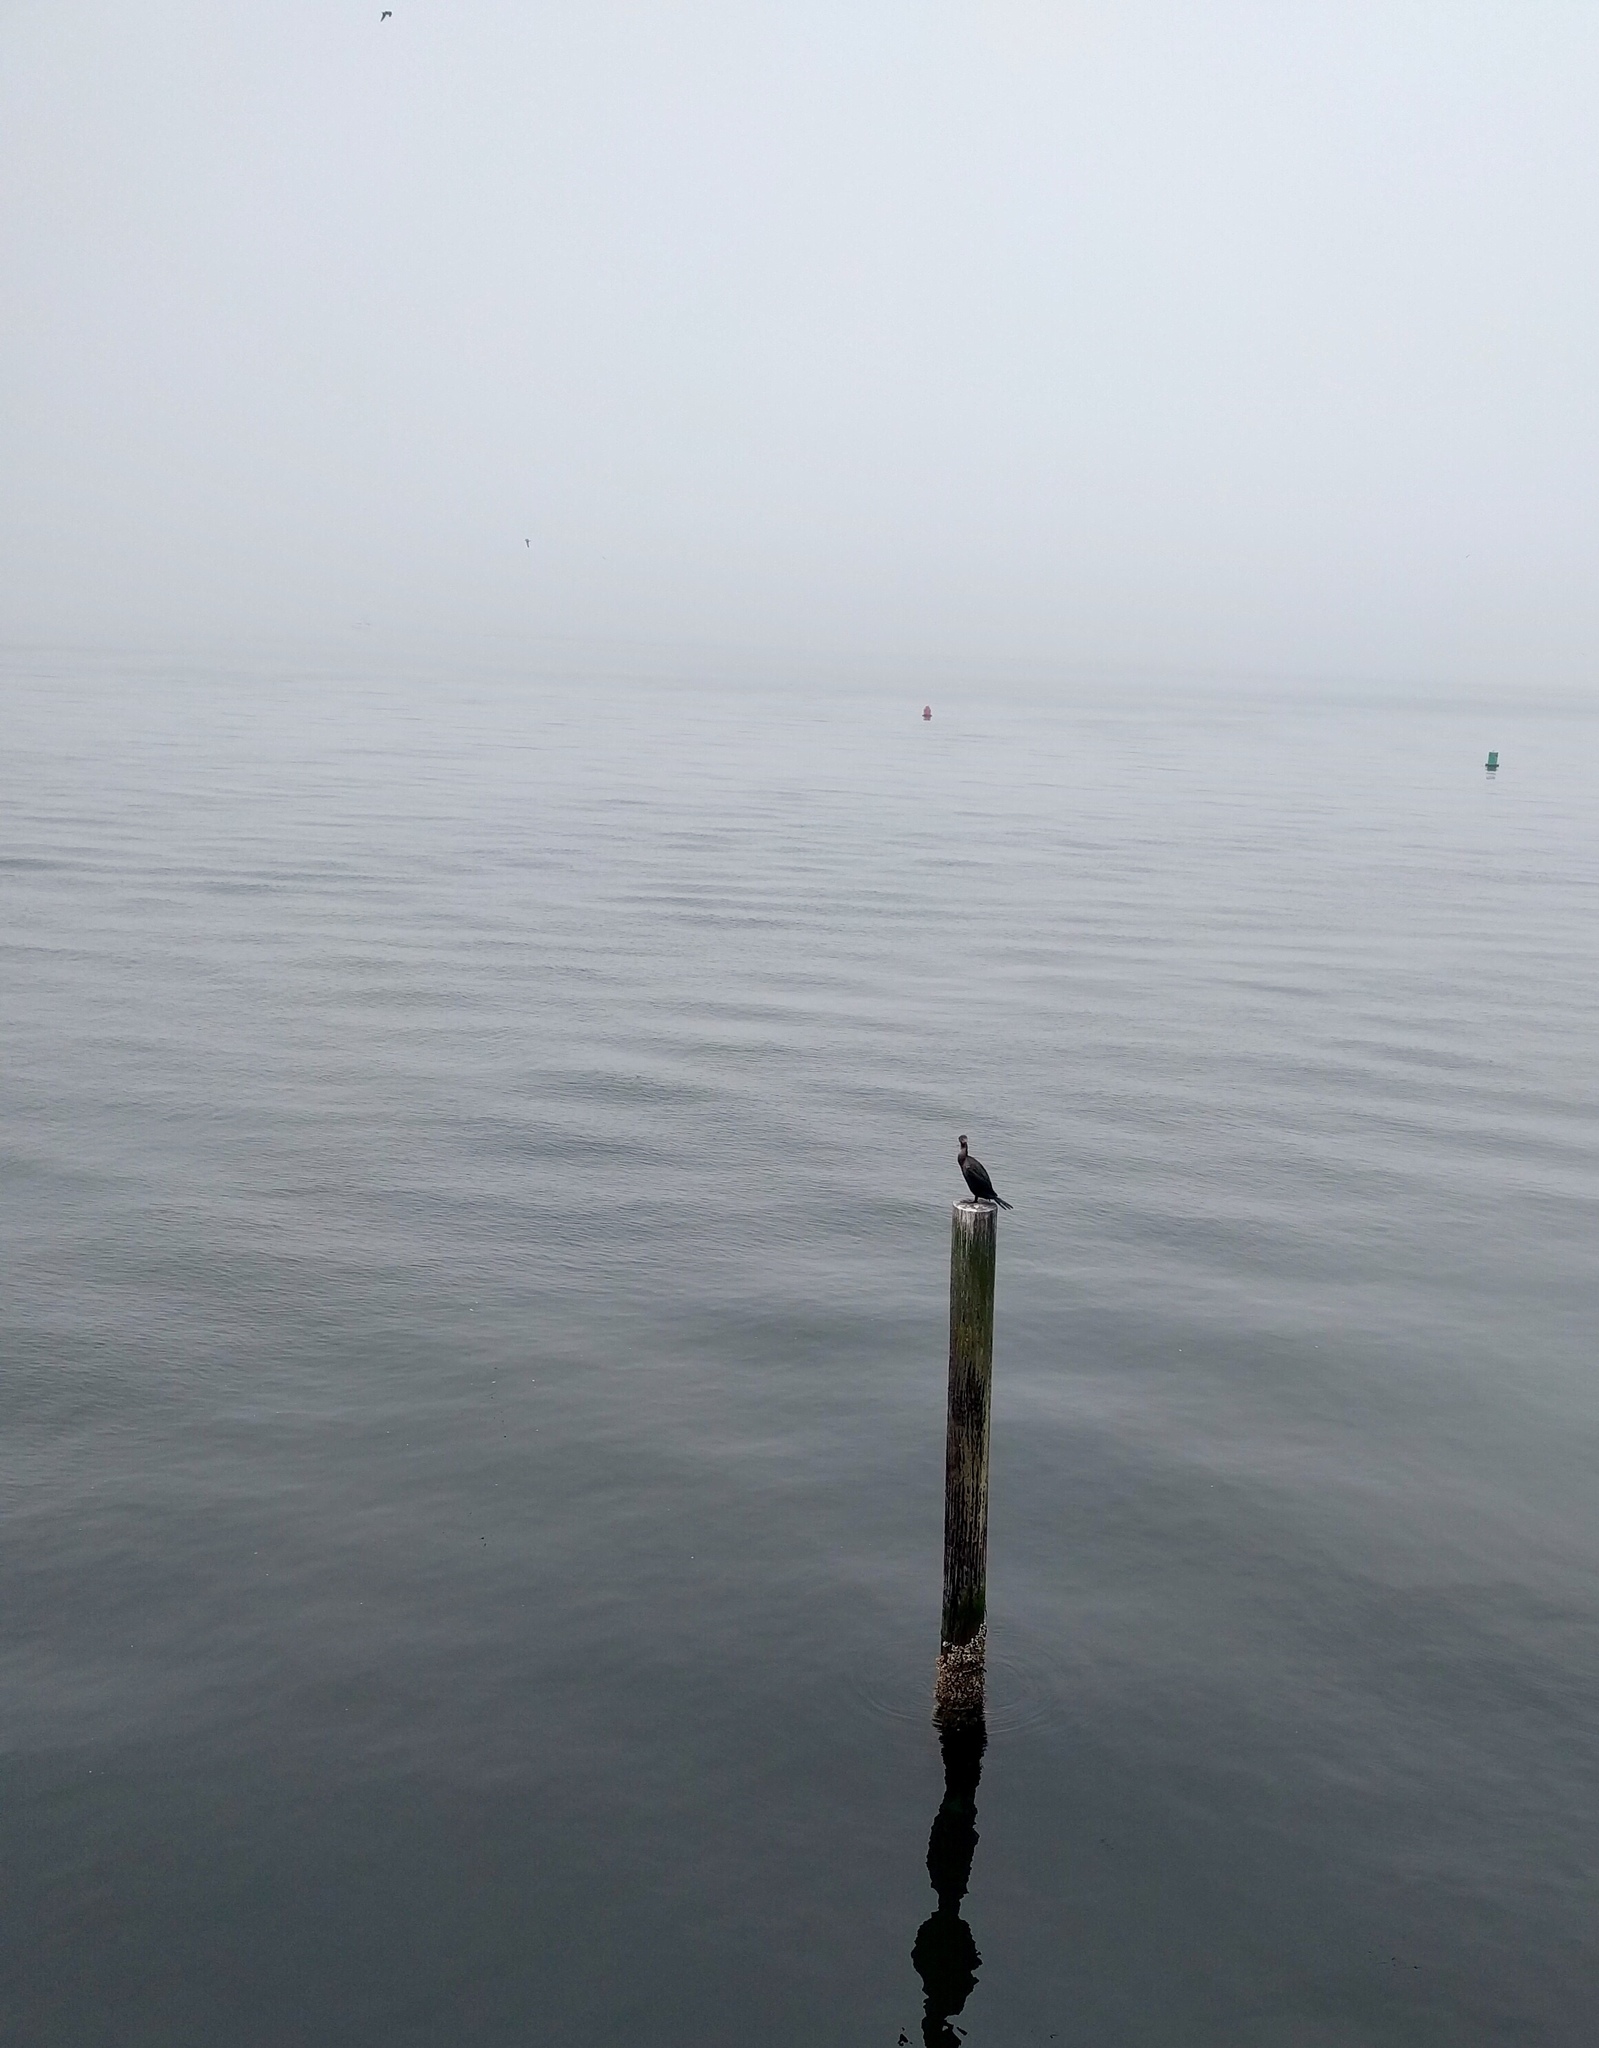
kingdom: Animalia
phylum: Chordata
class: Aves
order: Suliformes
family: Phalacrocoracidae
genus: Phalacrocorax
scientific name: Phalacrocorax auritus
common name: Double-crested cormorant
